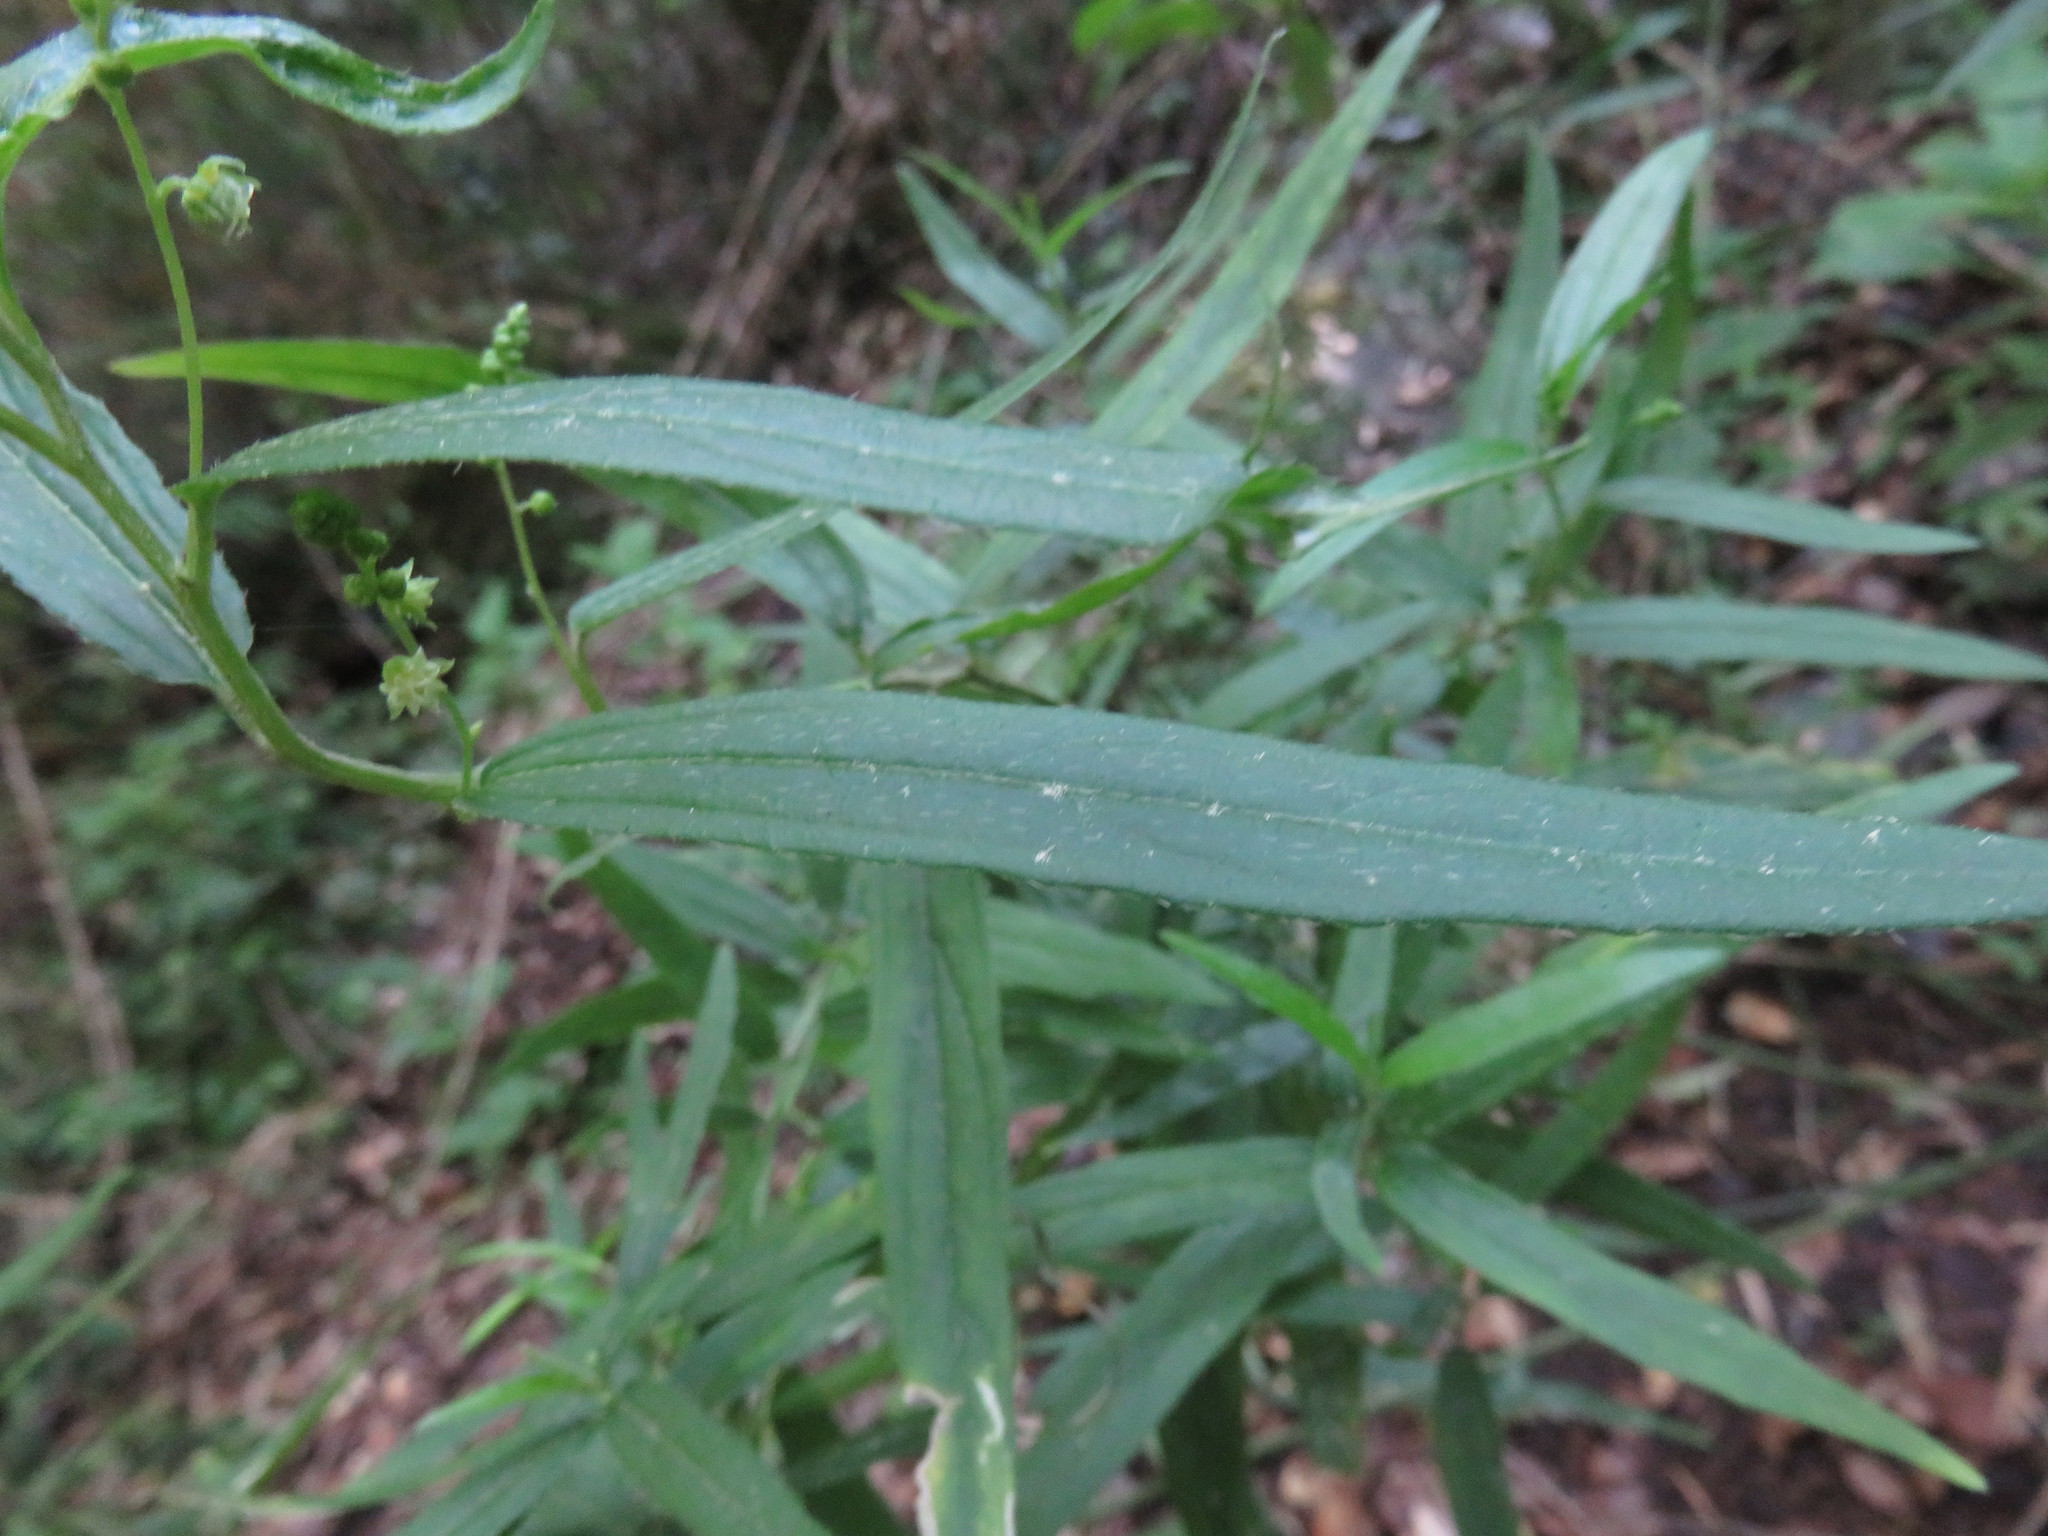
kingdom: Plantae
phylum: Tracheophyta
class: Magnoliopsida
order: Malpighiales
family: Euphorbiaceae
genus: Chiropetalum
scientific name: Chiropetalum tricuspidatum
